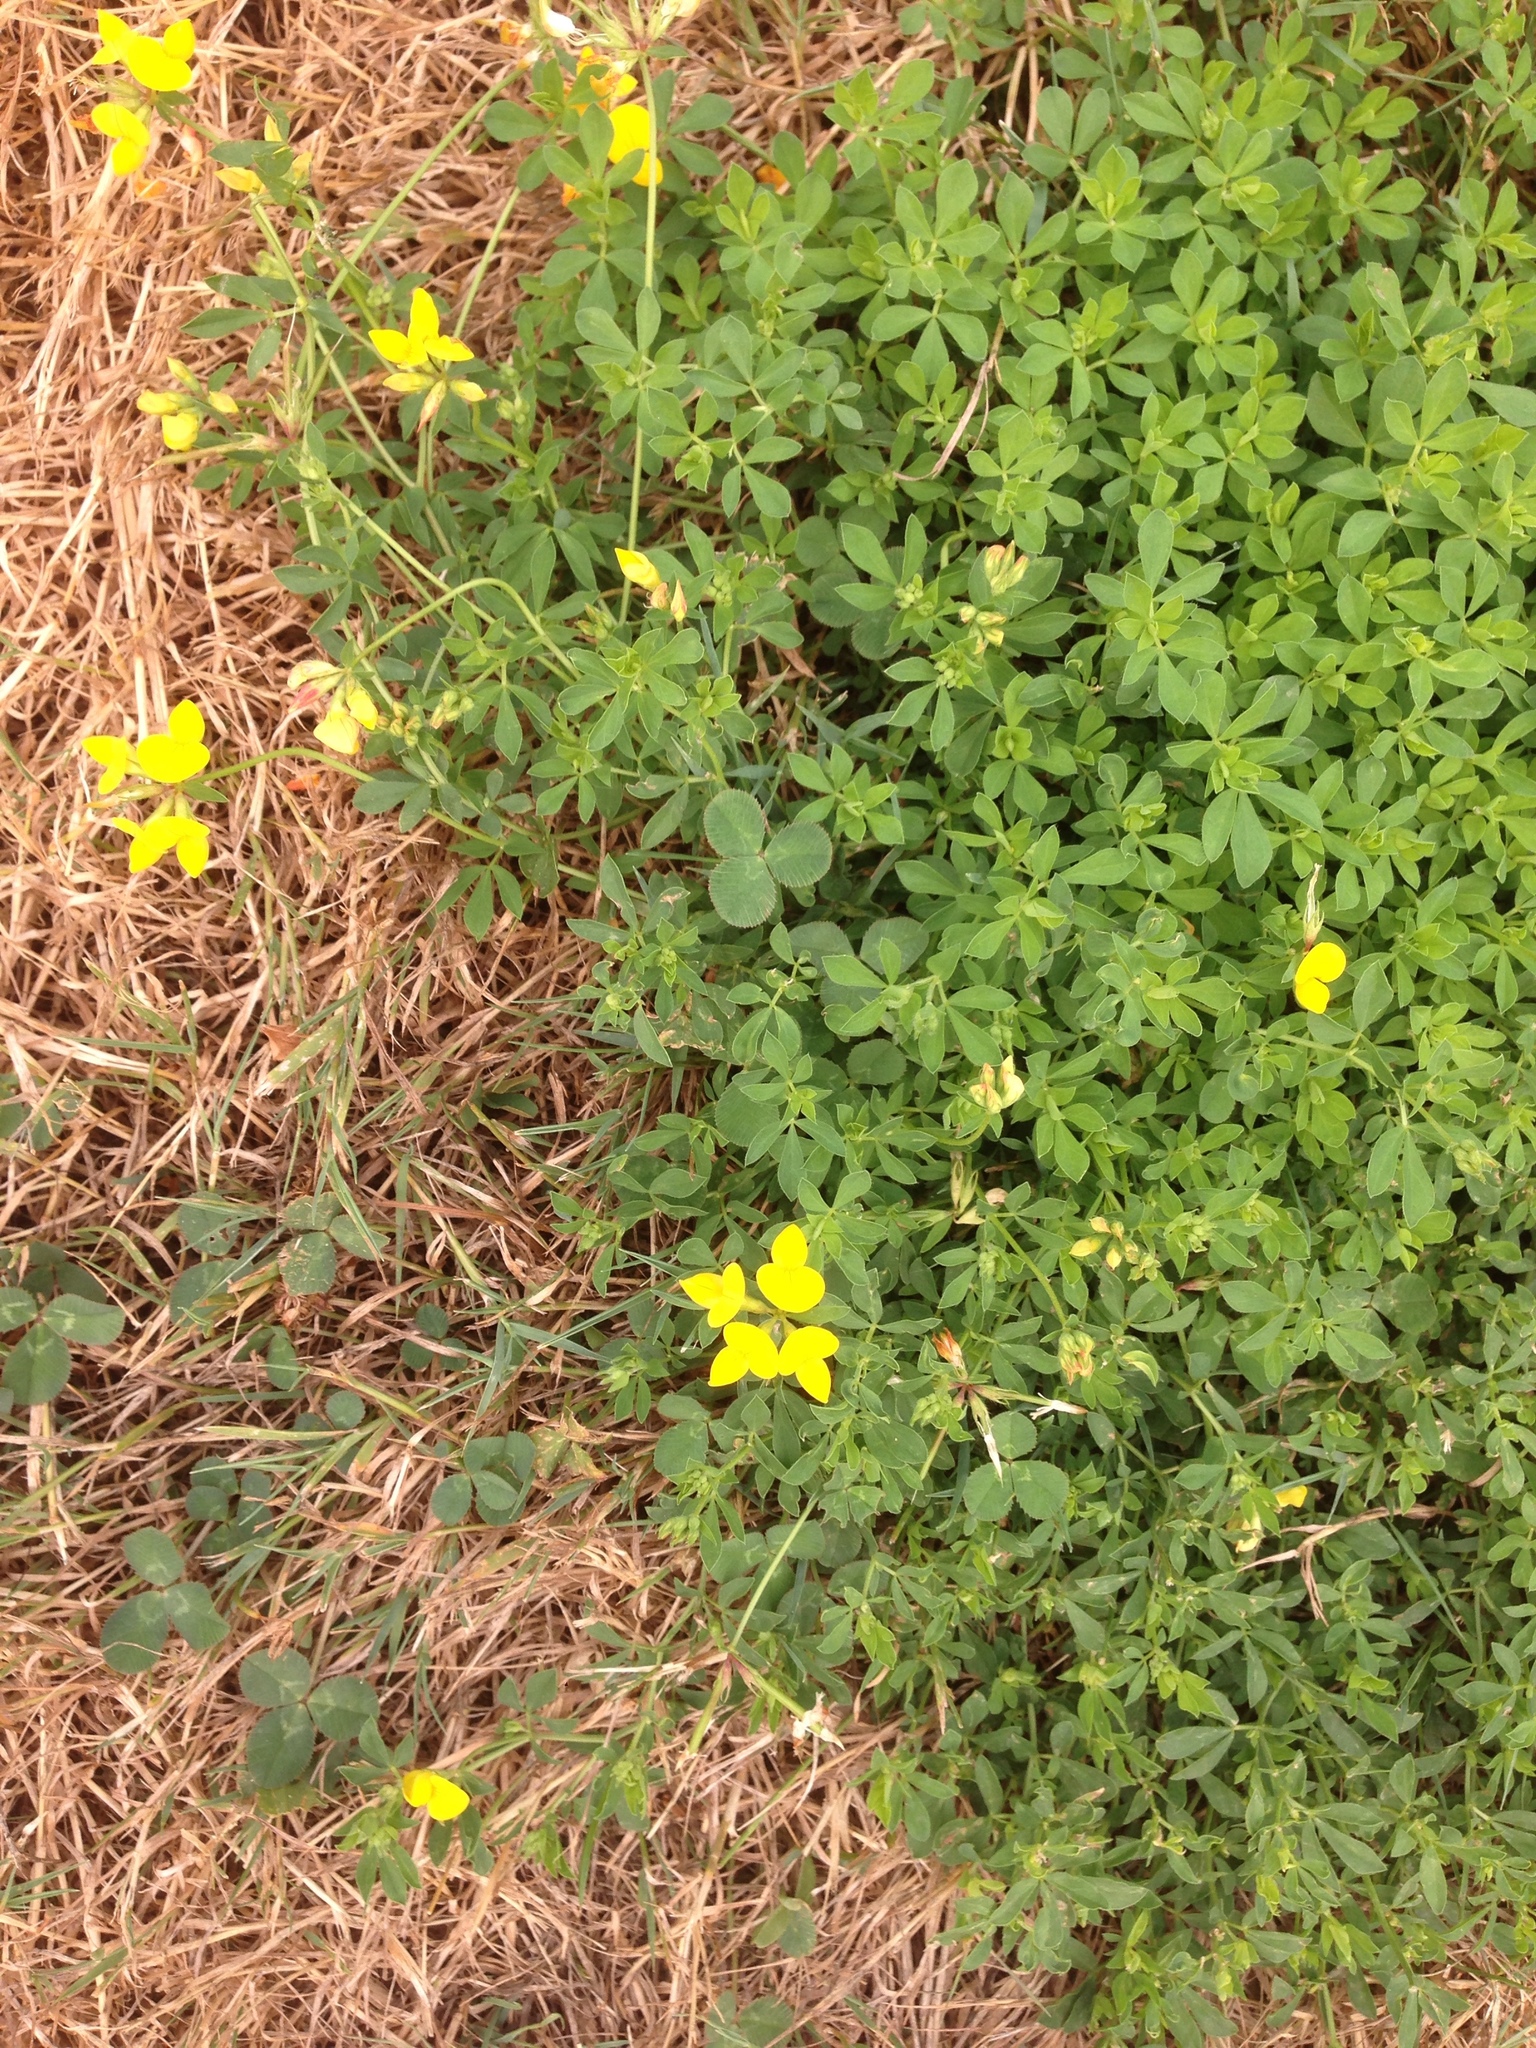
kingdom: Plantae
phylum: Tracheophyta
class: Magnoliopsida
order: Fabales
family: Fabaceae
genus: Lotus
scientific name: Lotus corniculatus
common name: Common bird's-foot-trefoil
